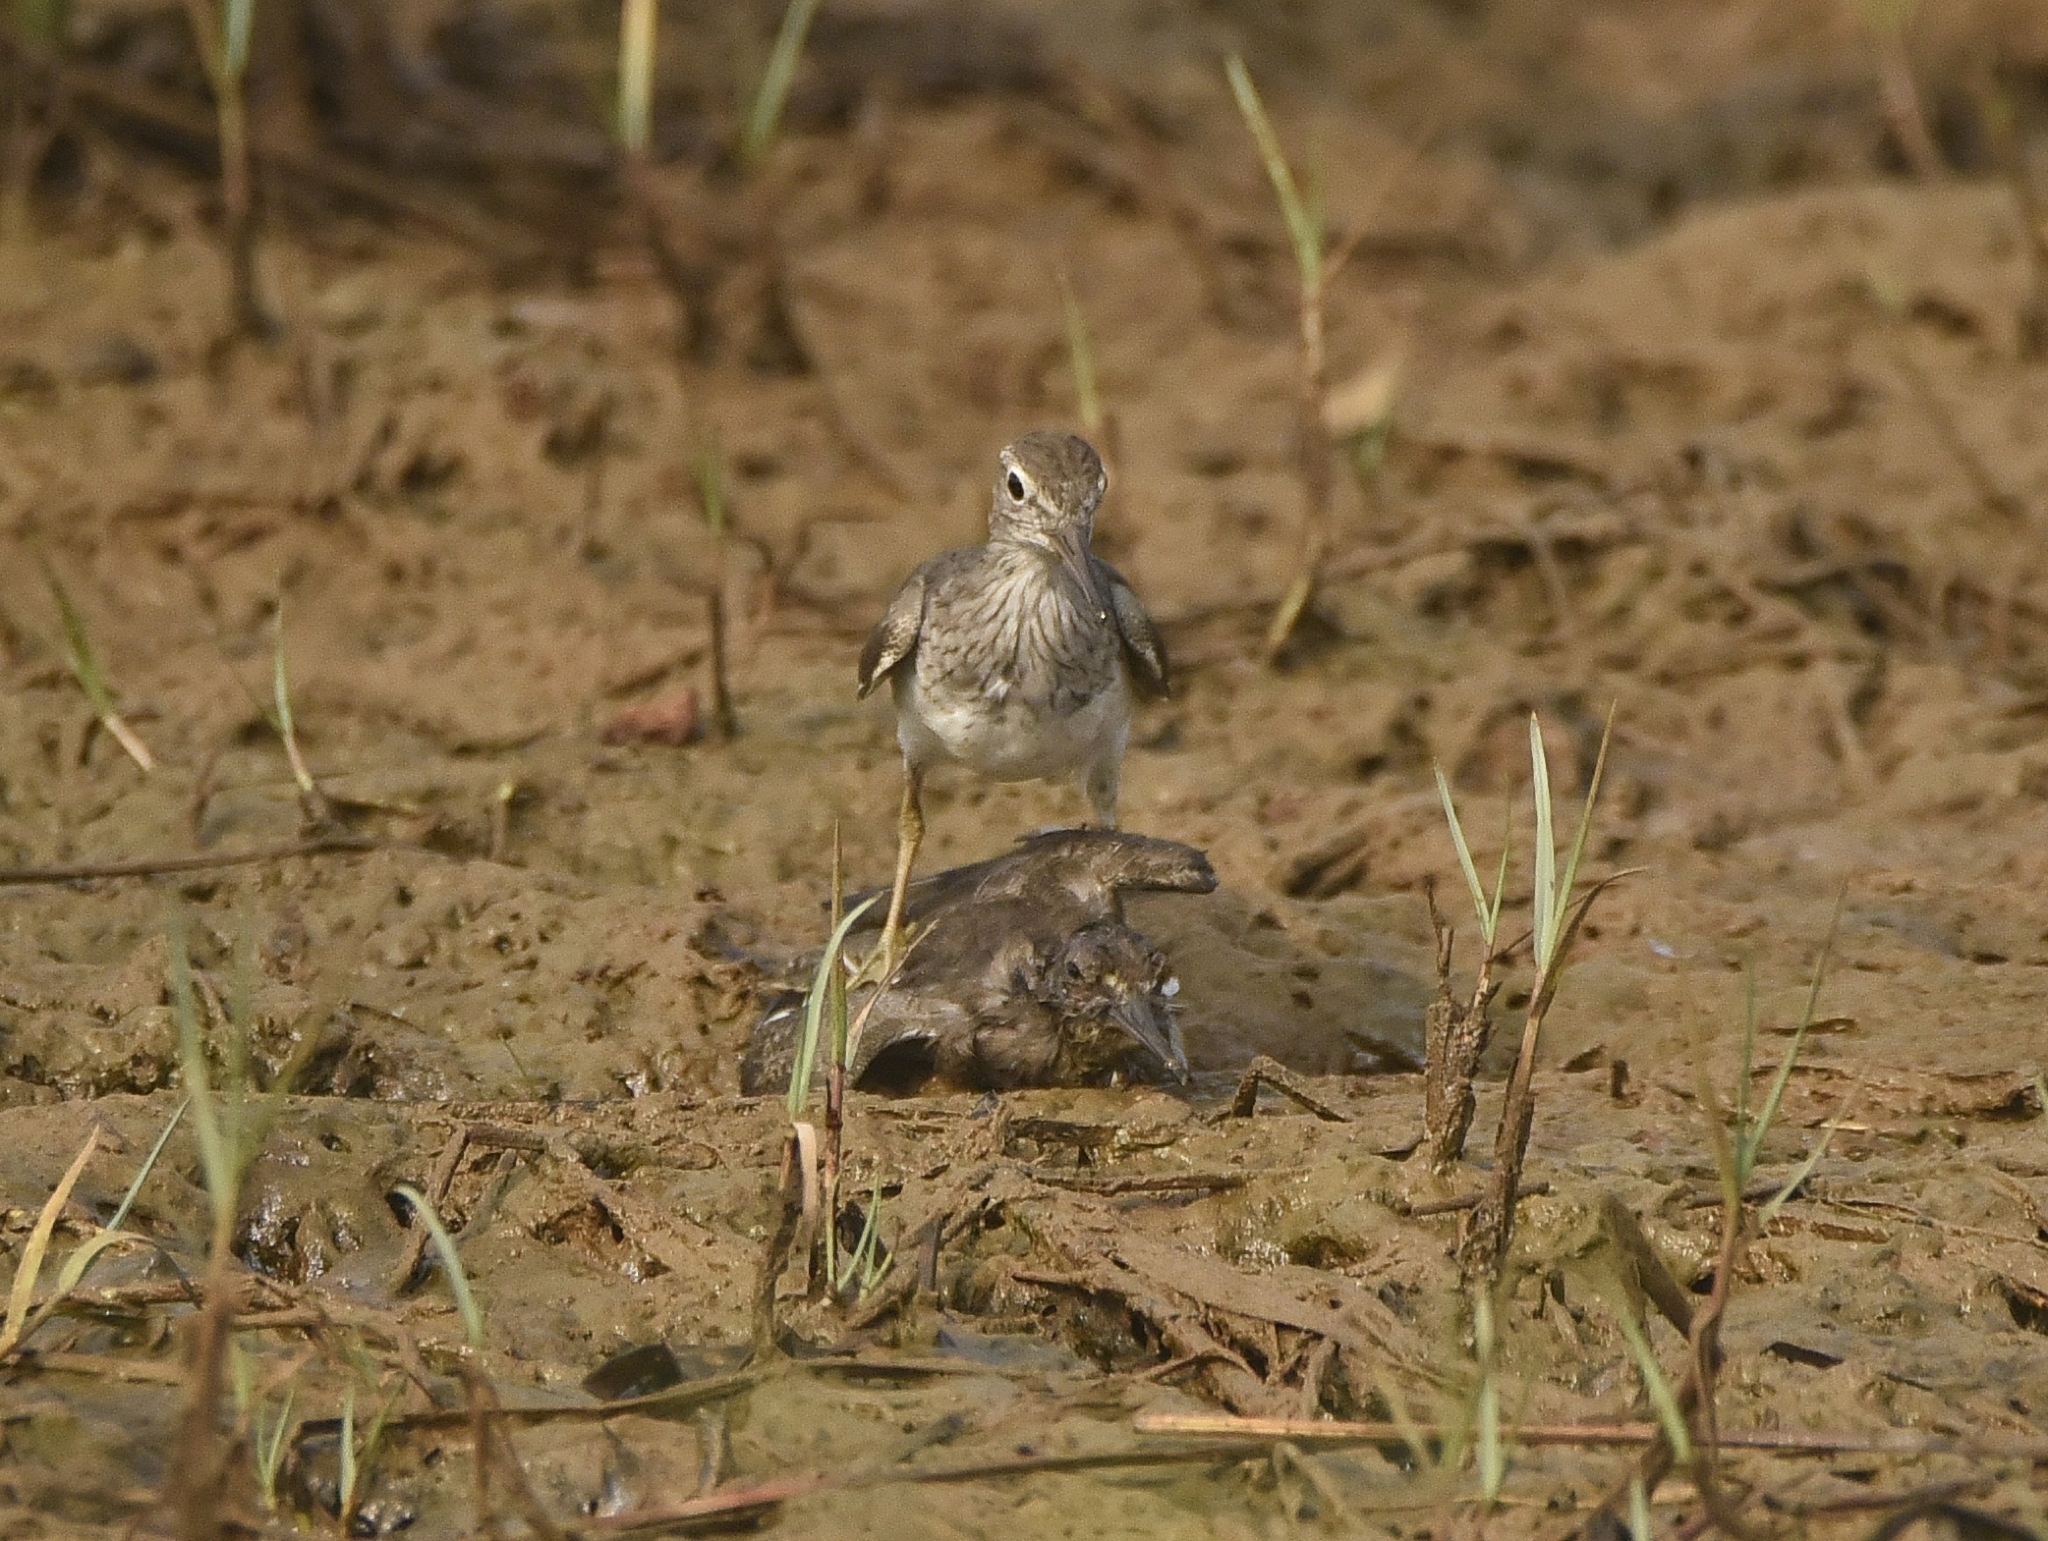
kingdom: Animalia
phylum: Chordata
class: Aves
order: Charadriiformes
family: Scolopacidae
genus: Actitis
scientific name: Actitis hypoleucos
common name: Common sandpiper
